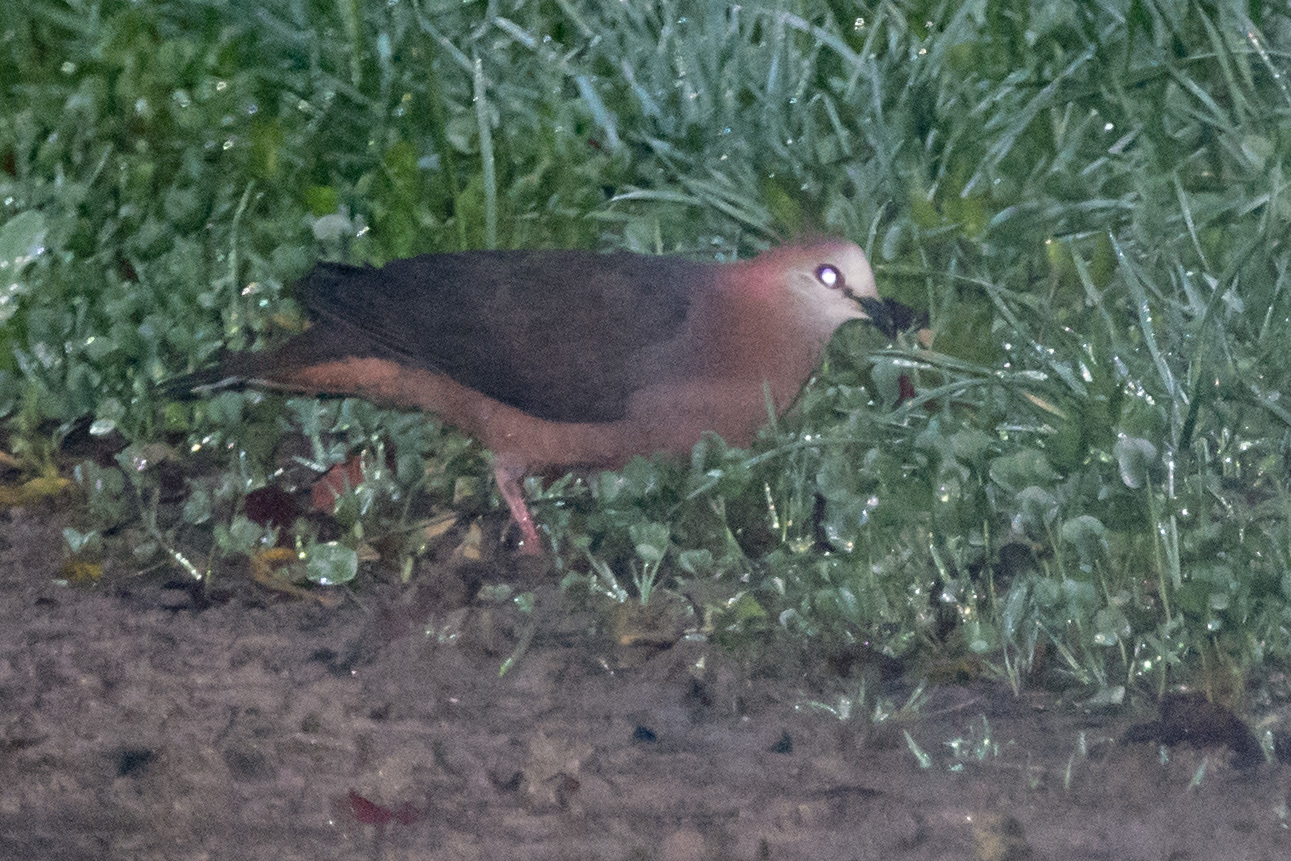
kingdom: Animalia
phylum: Chordata
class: Aves
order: Columbiformes
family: Columbidae
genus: Columba
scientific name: Columba larvata
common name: Lemon dove
